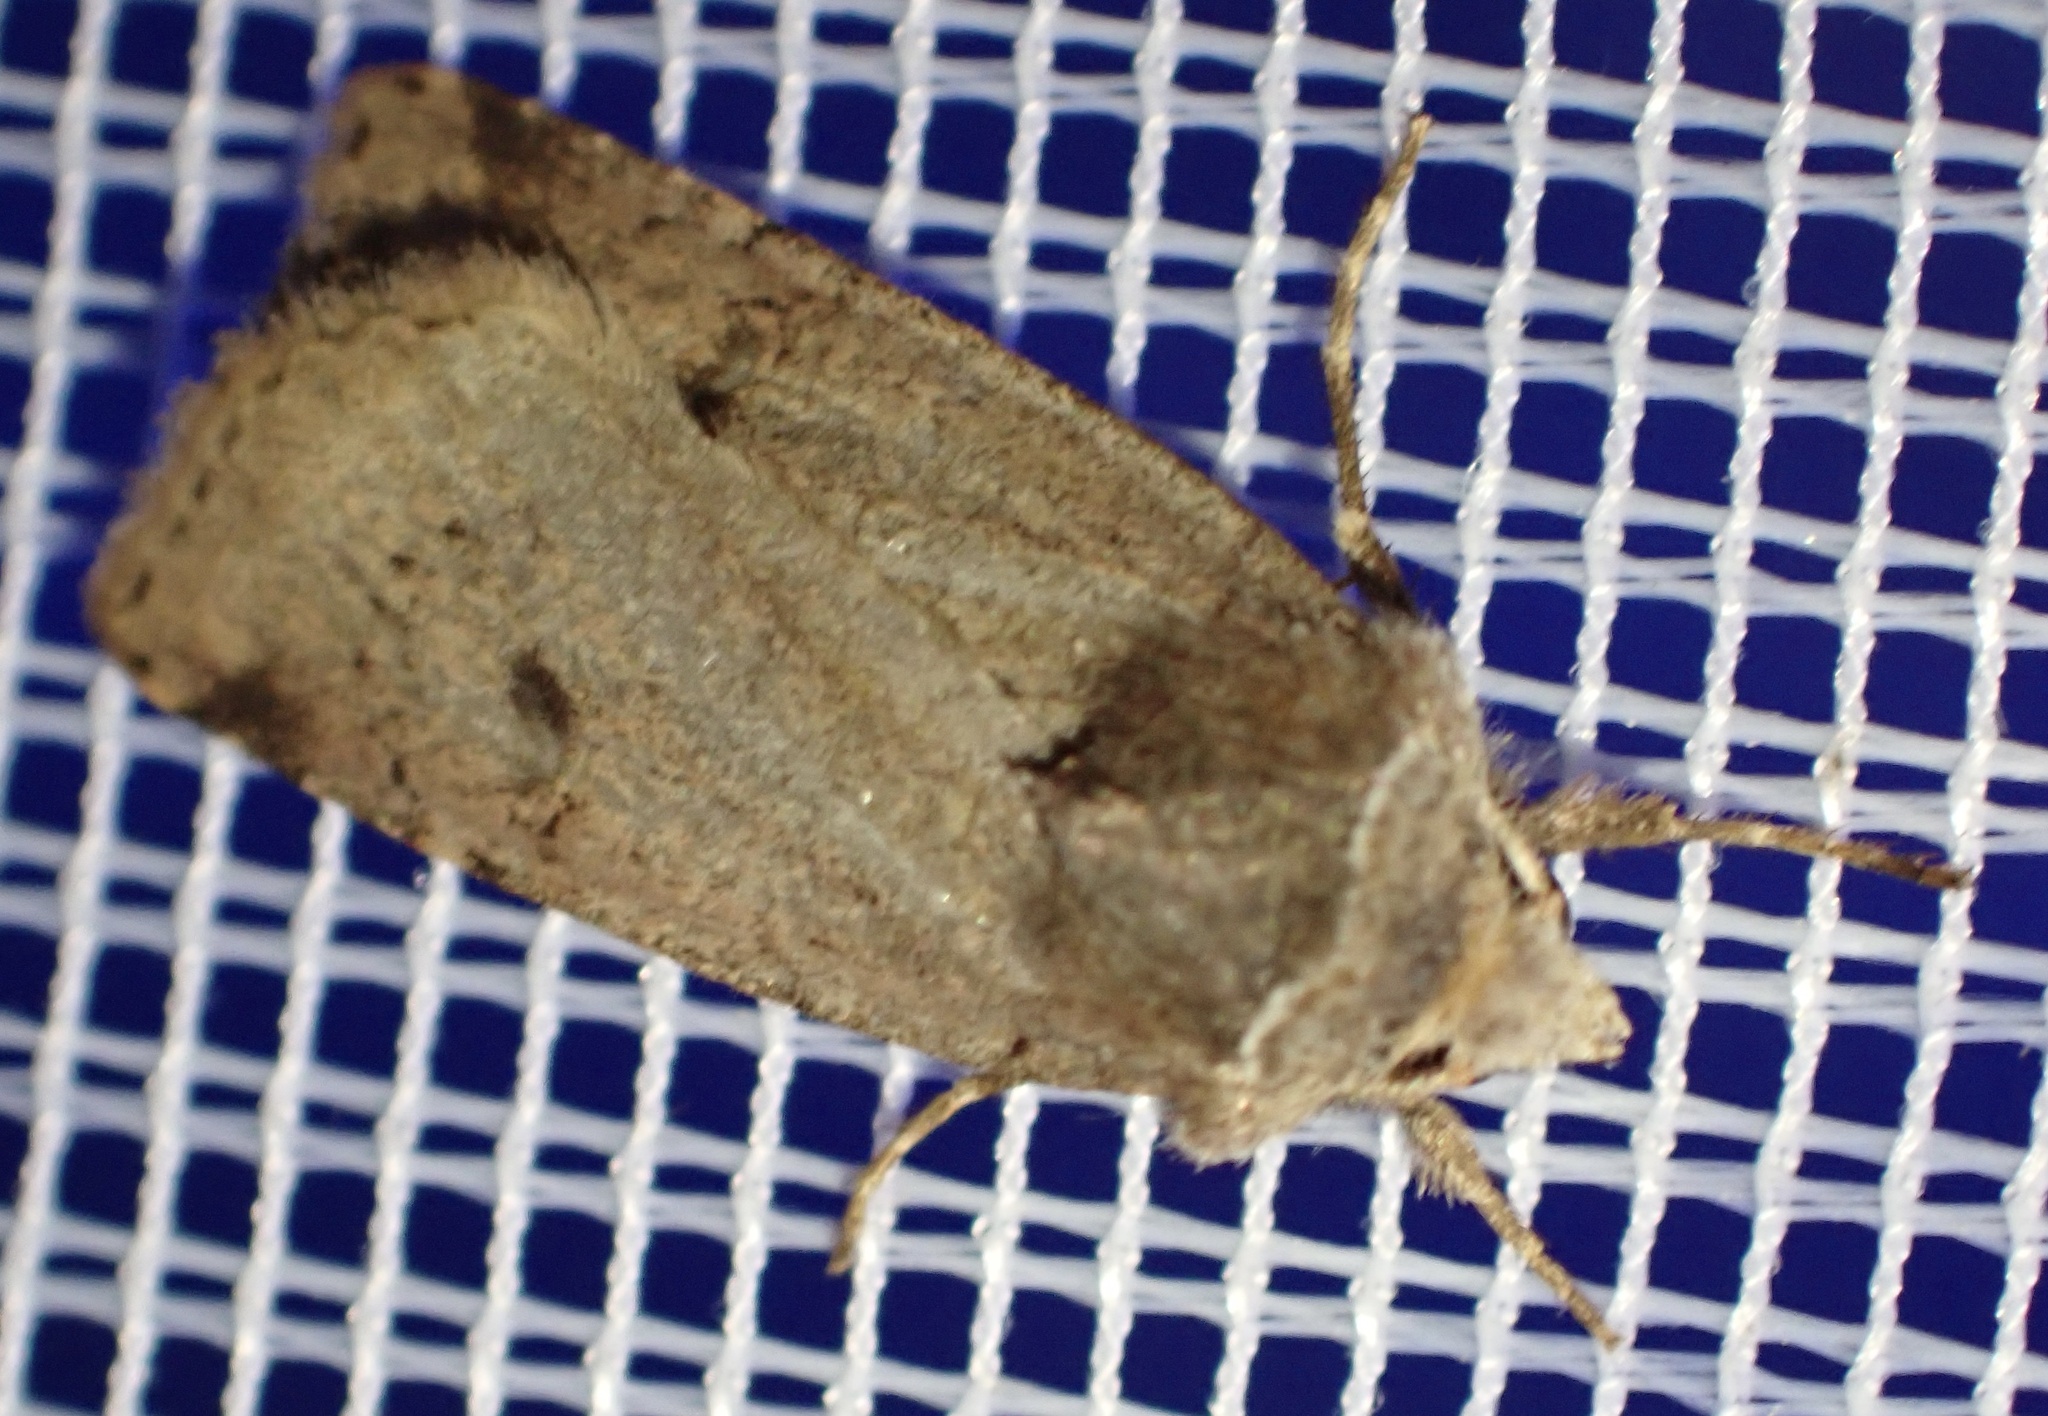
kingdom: Animalia
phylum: Arthropoda
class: Insecta
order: Lepidoptera
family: Noctuidae
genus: Cerastis
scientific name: Cerastis faceta
